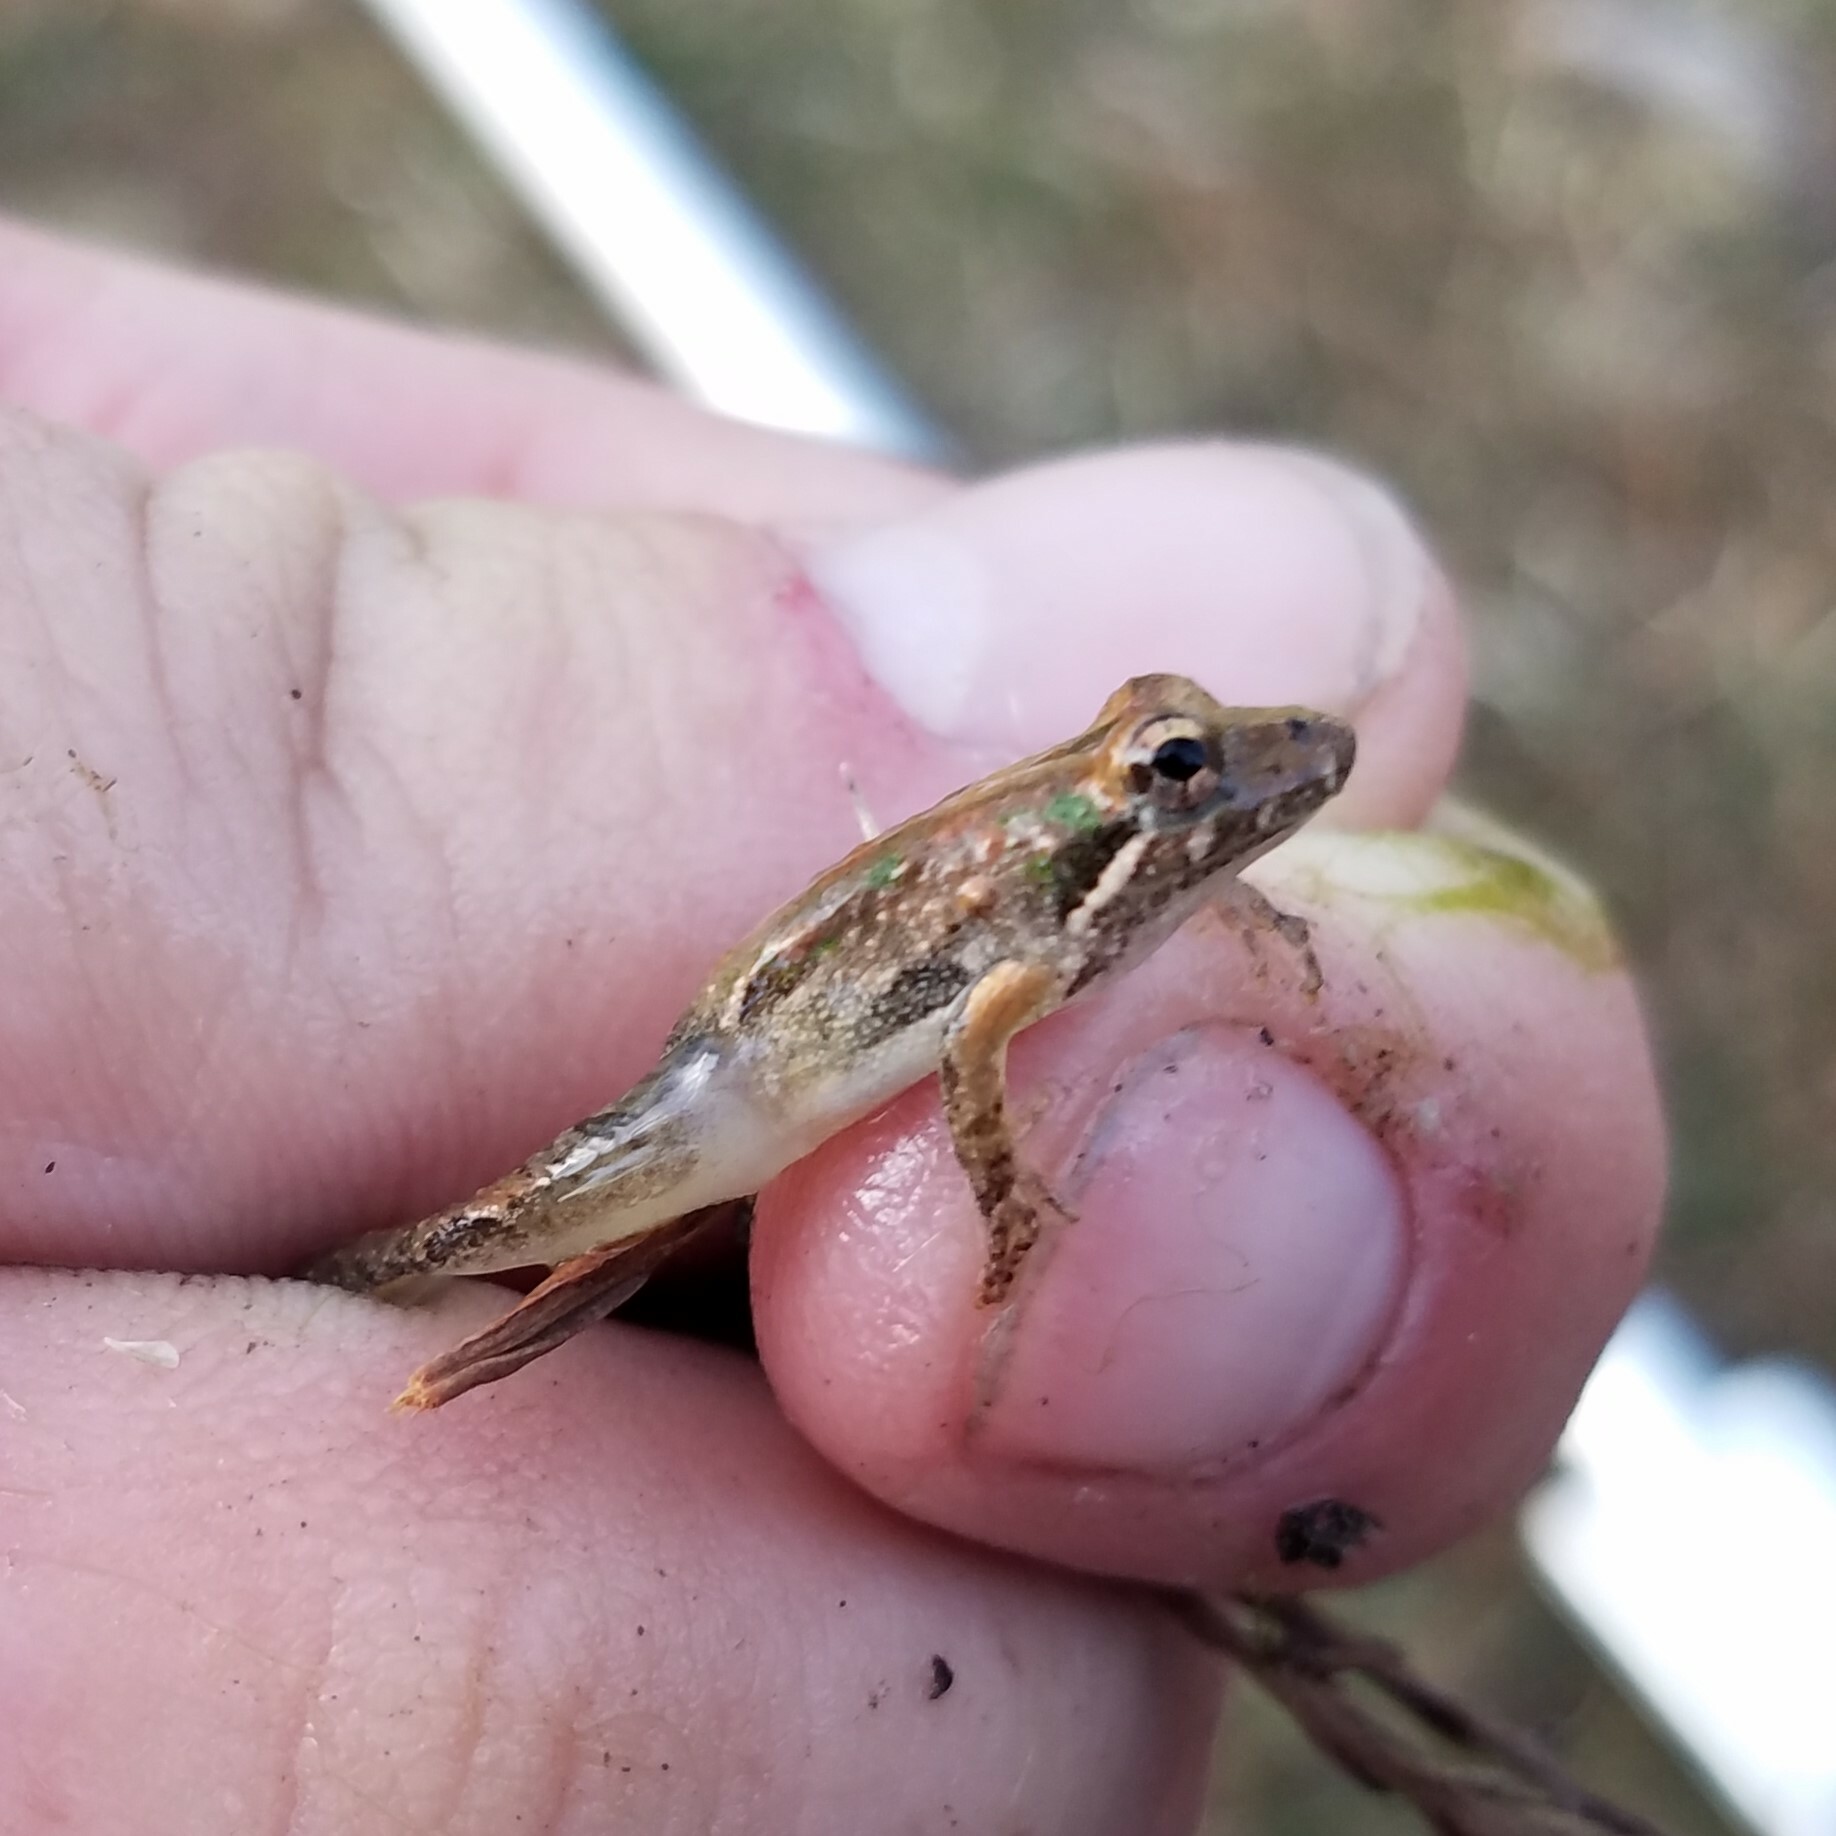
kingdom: Animalia
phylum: Chordata
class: Amphibia
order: Anura
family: Hylidae
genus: Acris
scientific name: Acris gryllus
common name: Southern cricket frog
